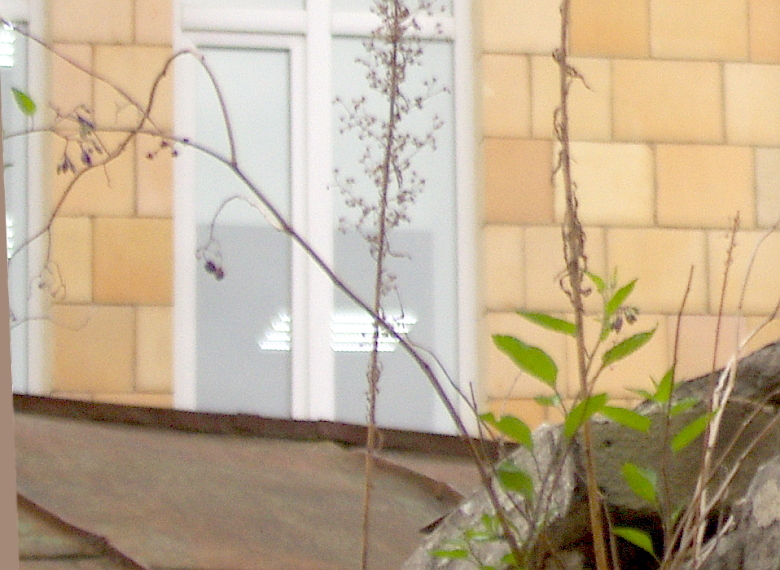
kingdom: Plantae
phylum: Tracheophyta
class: Magnoliopsida
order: Solanales
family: Solanaceae
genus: Solanum
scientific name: Solanum dulcamara
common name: Climbing nightshade
